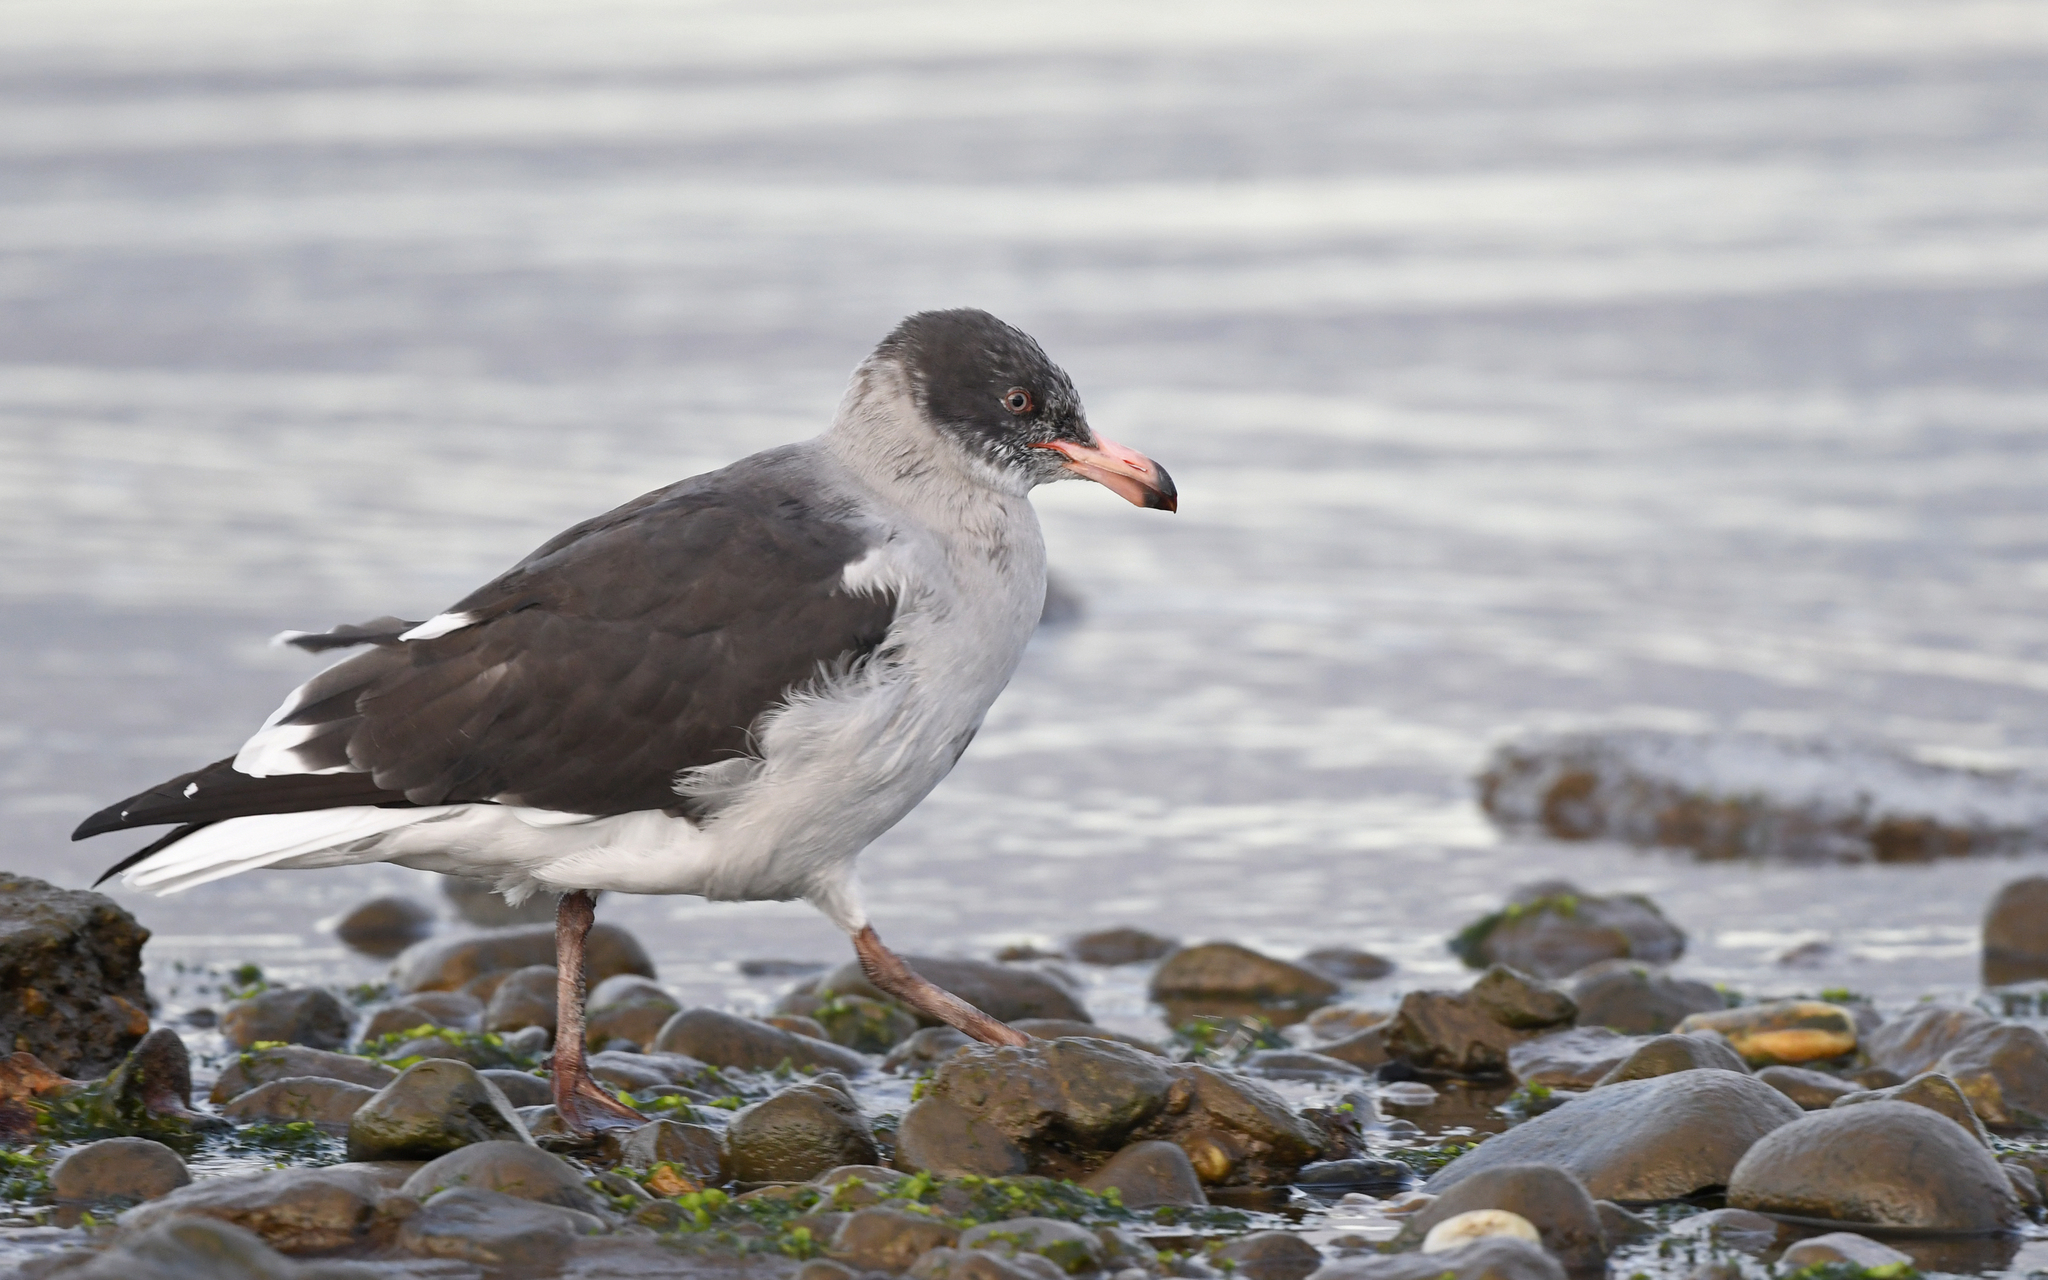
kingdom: Animalia
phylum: Chordata
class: Aves
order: Charadriiformes
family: Laridae
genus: Leucophaeus
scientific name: Leucophaeus scoresbii
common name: Dolphin gull
